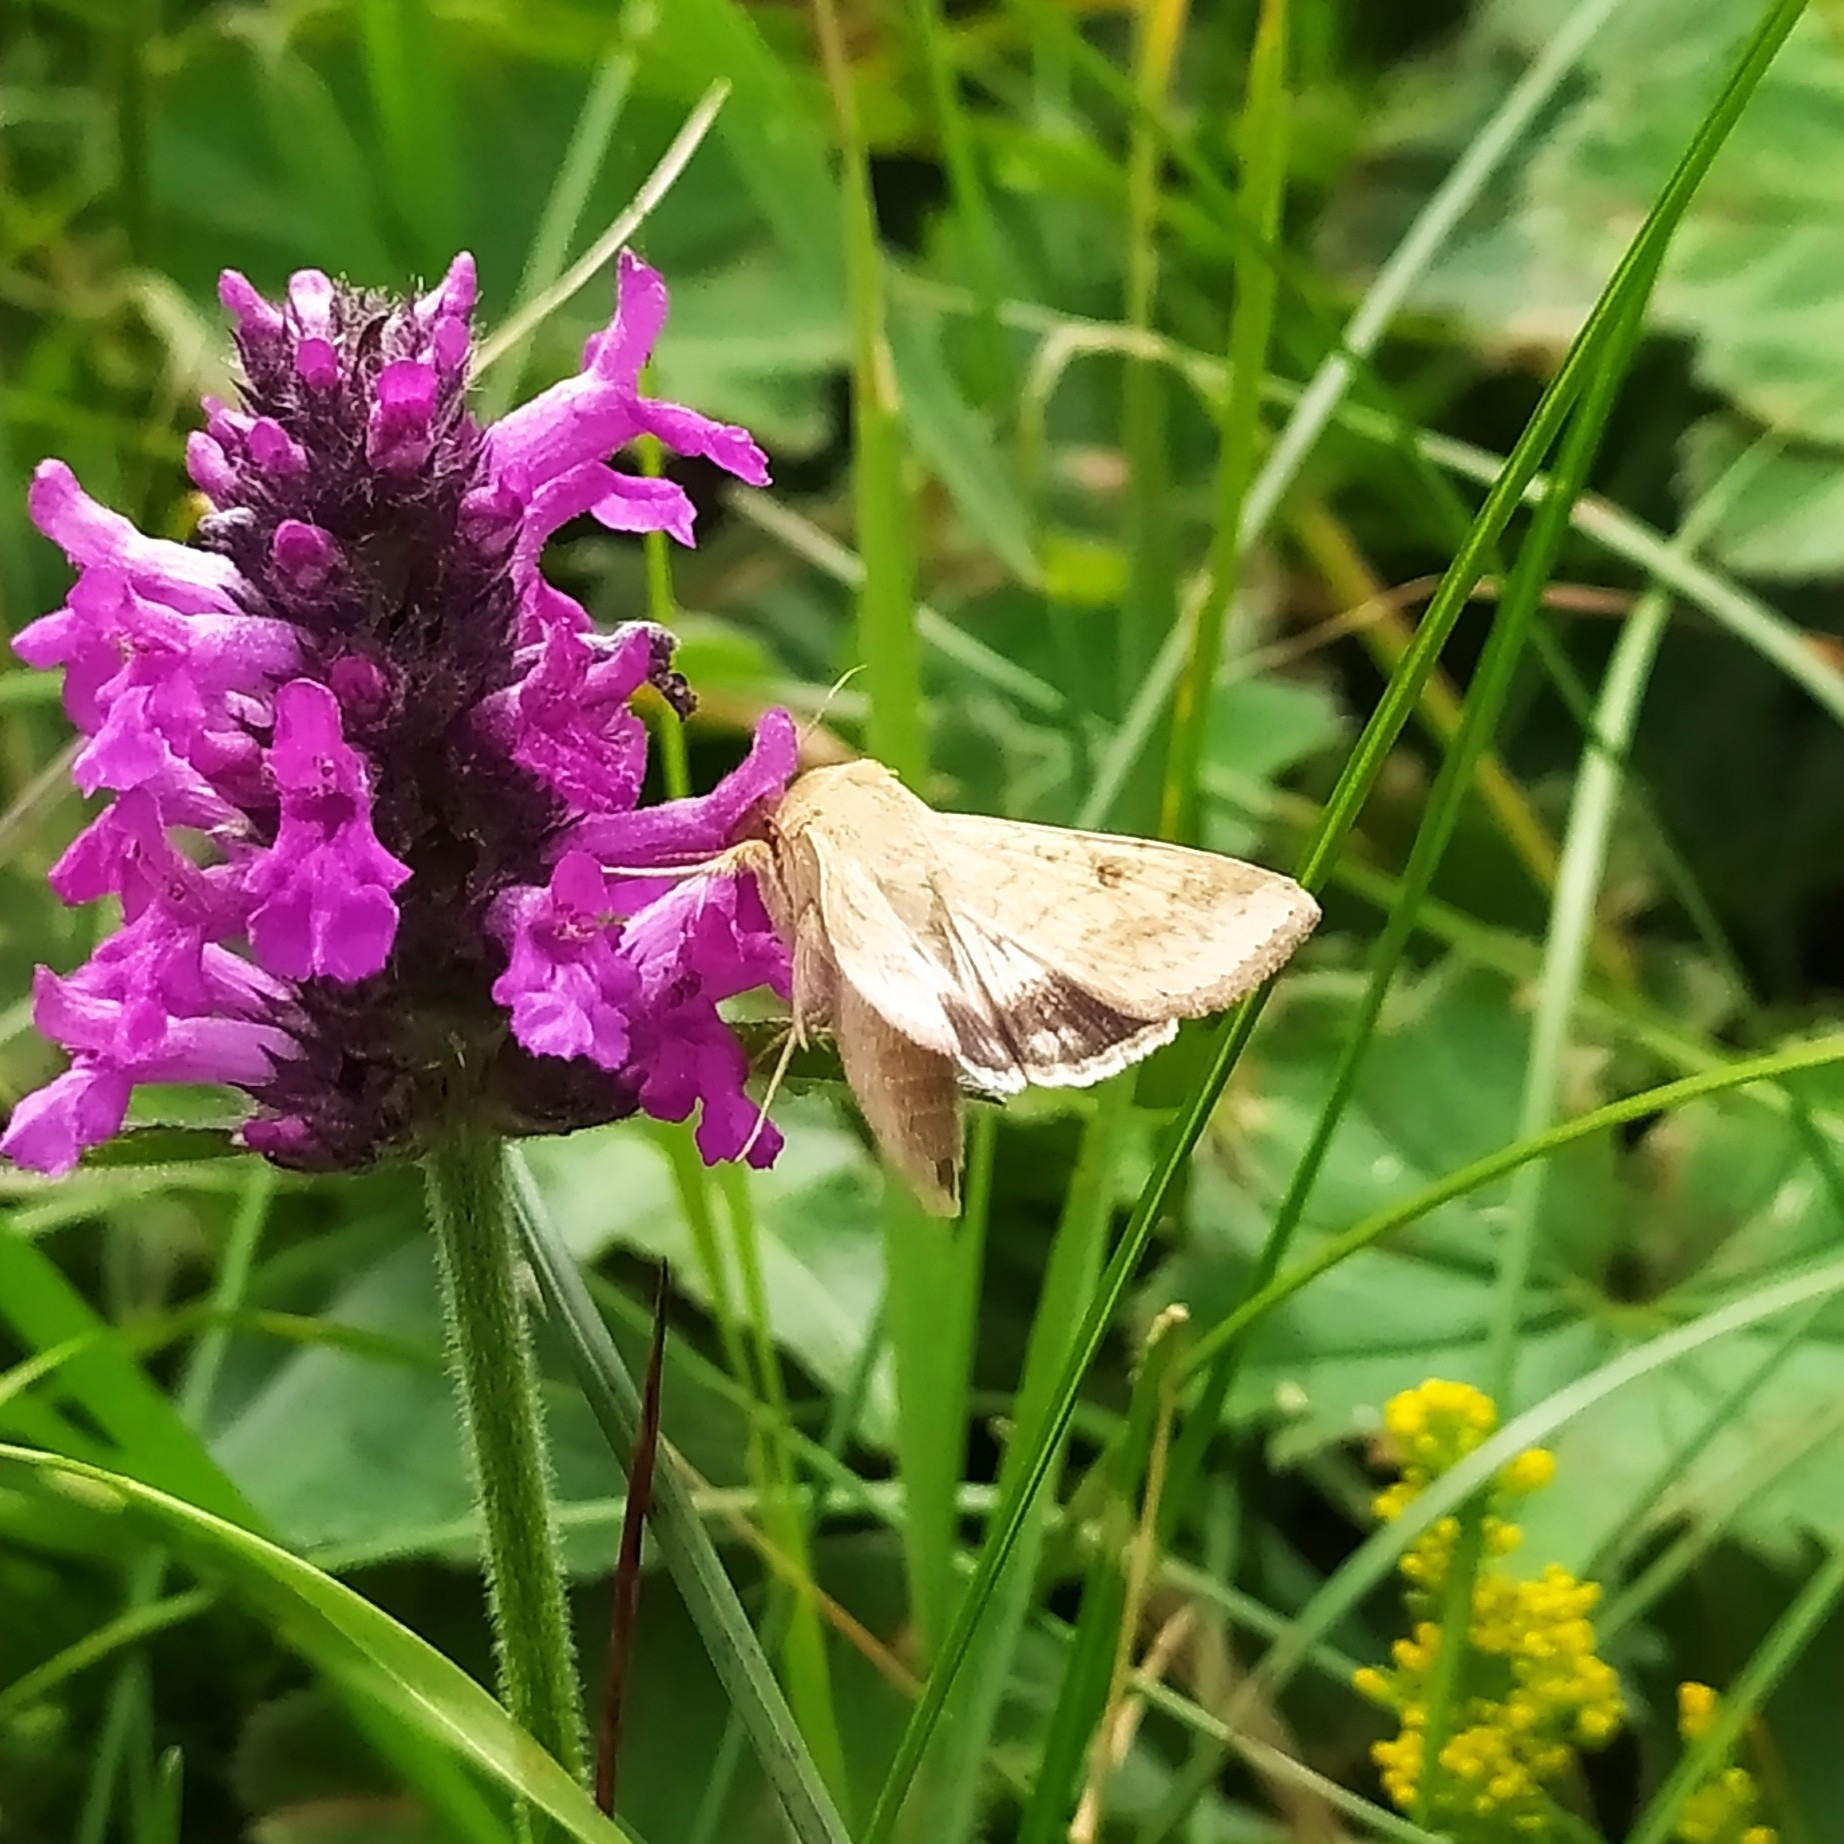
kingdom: Animalia
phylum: Arthropoda
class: Insecta
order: Lepidoptera
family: Noctuidae
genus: Helicoverpa
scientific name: Helicoverpa armigera
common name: Cotton bollworm
